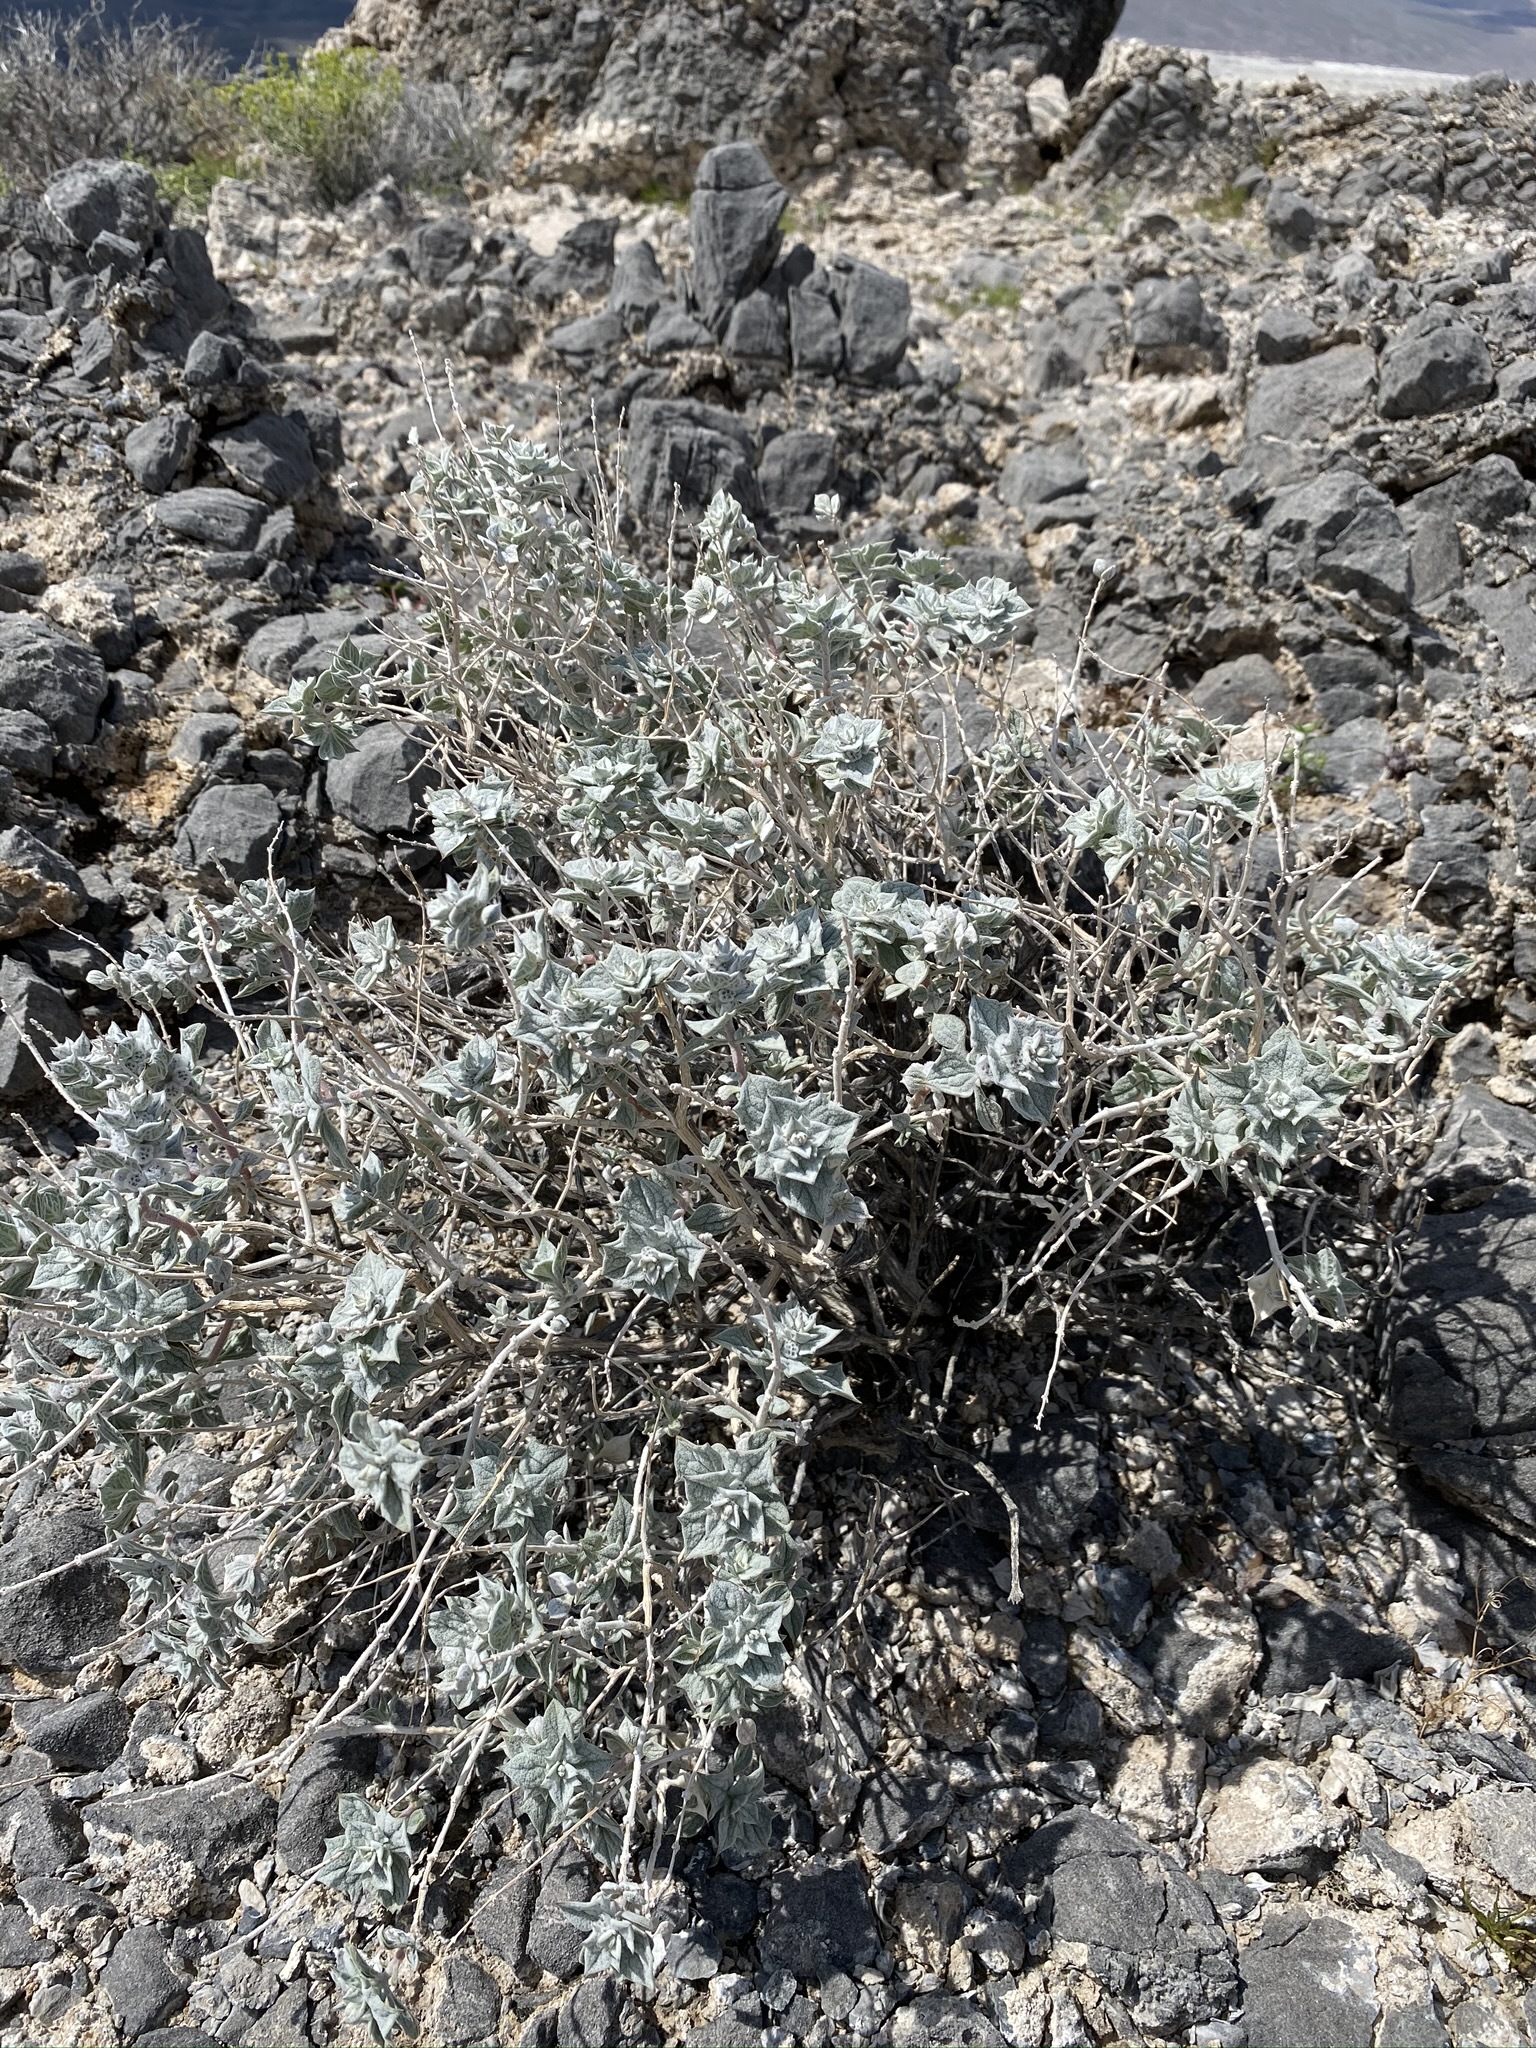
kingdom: Plantae
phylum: Tracheophyta
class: Magnoliopsida
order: Lamiales
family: Lamiaceae
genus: Salvia
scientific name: Salvia funerea
